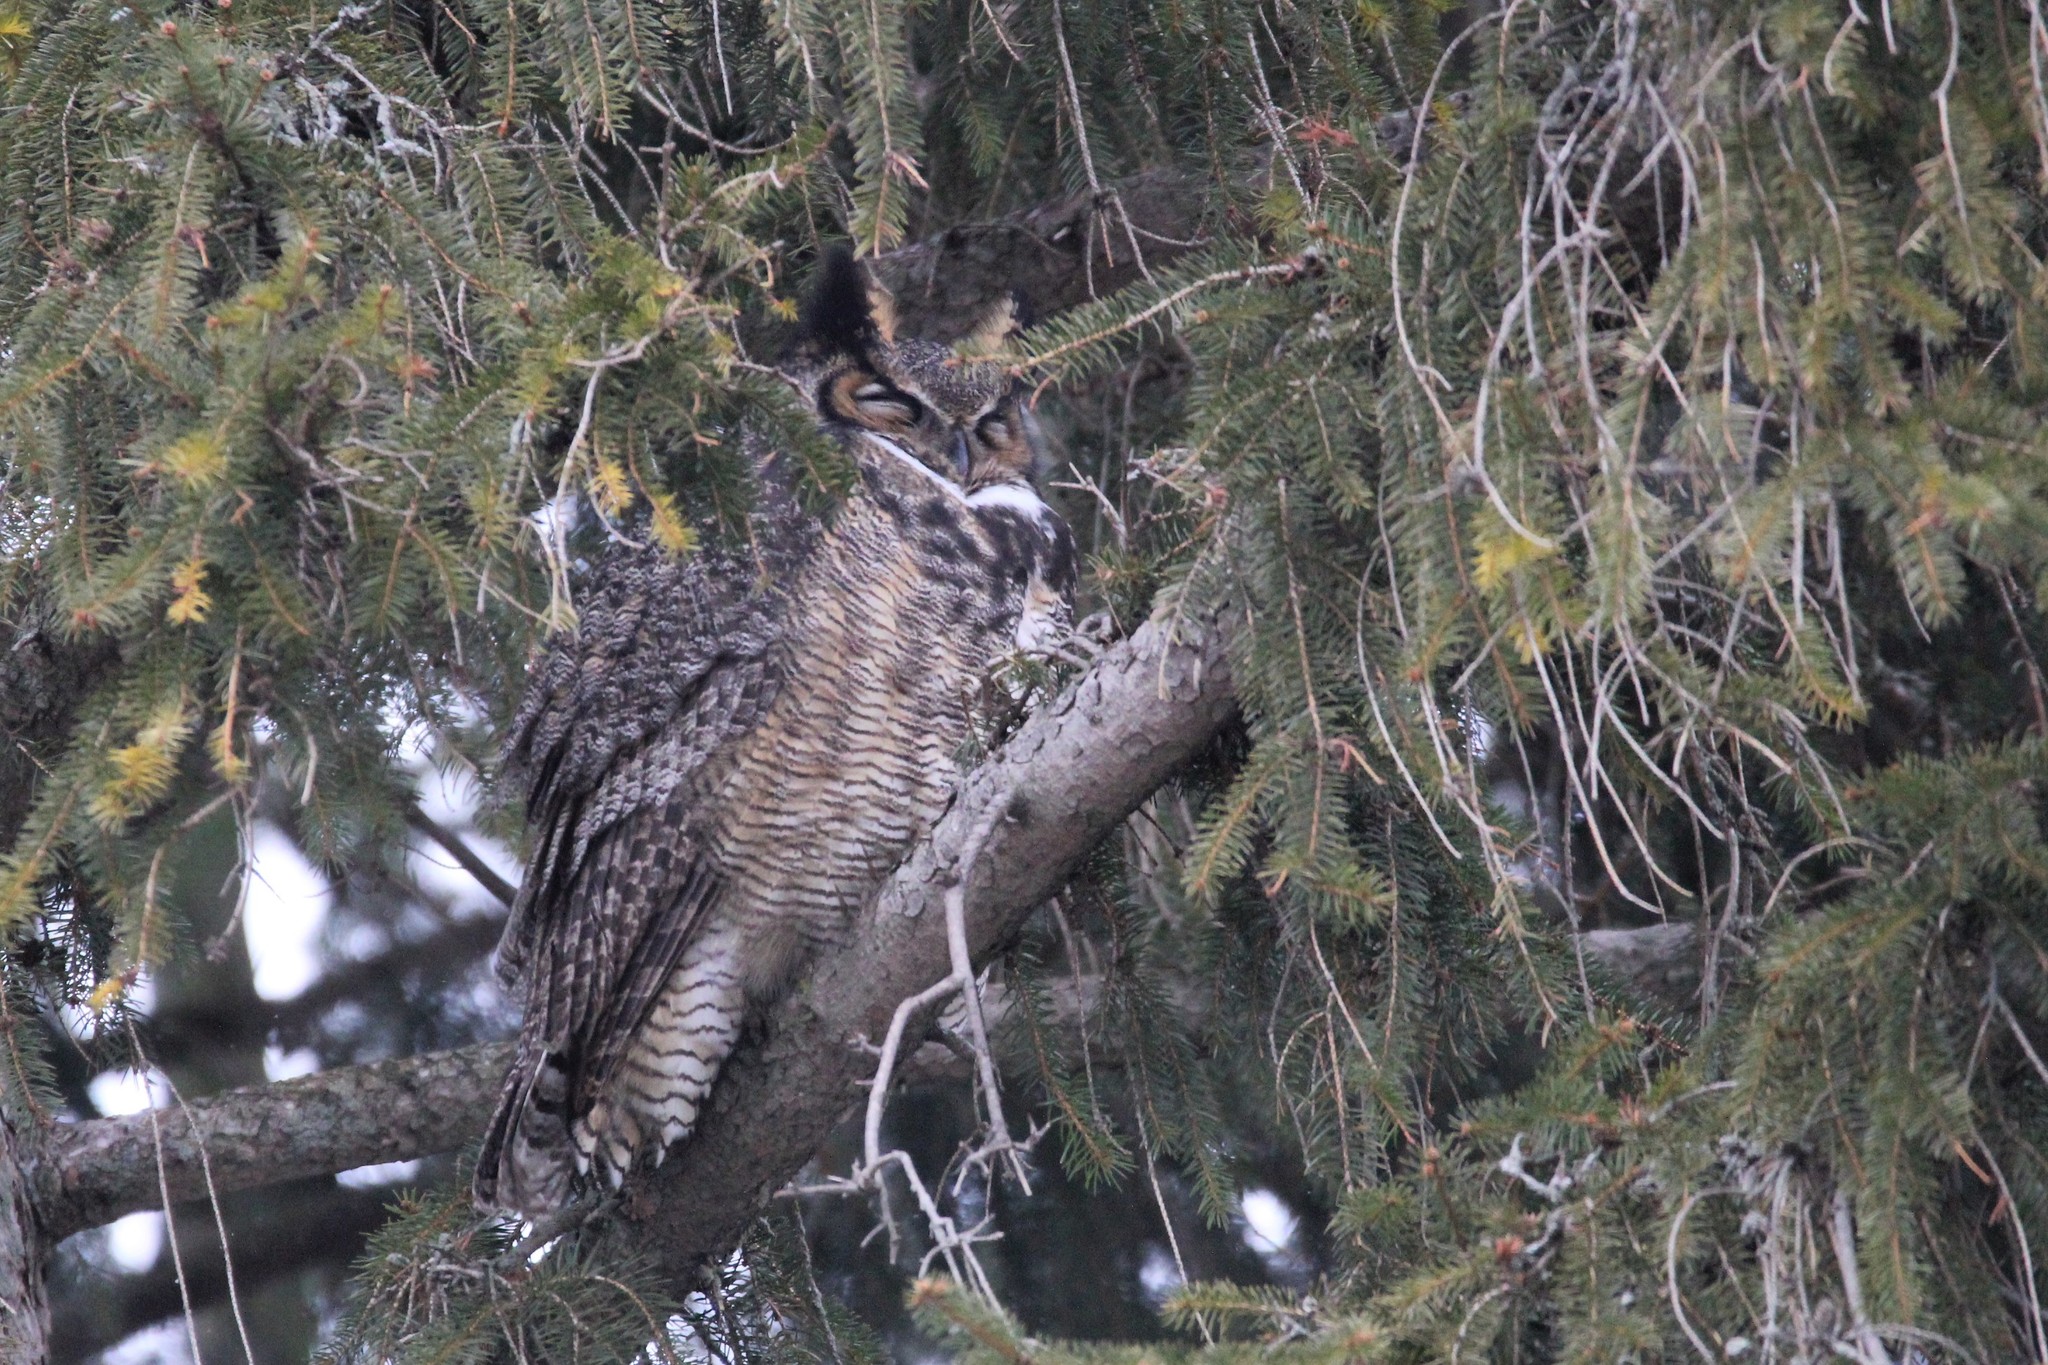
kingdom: Animalia
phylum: Chordata
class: Aves
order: Strigiformes
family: Strigidae
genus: Bubo
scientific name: Bubo virginianus
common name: Great horned owl
